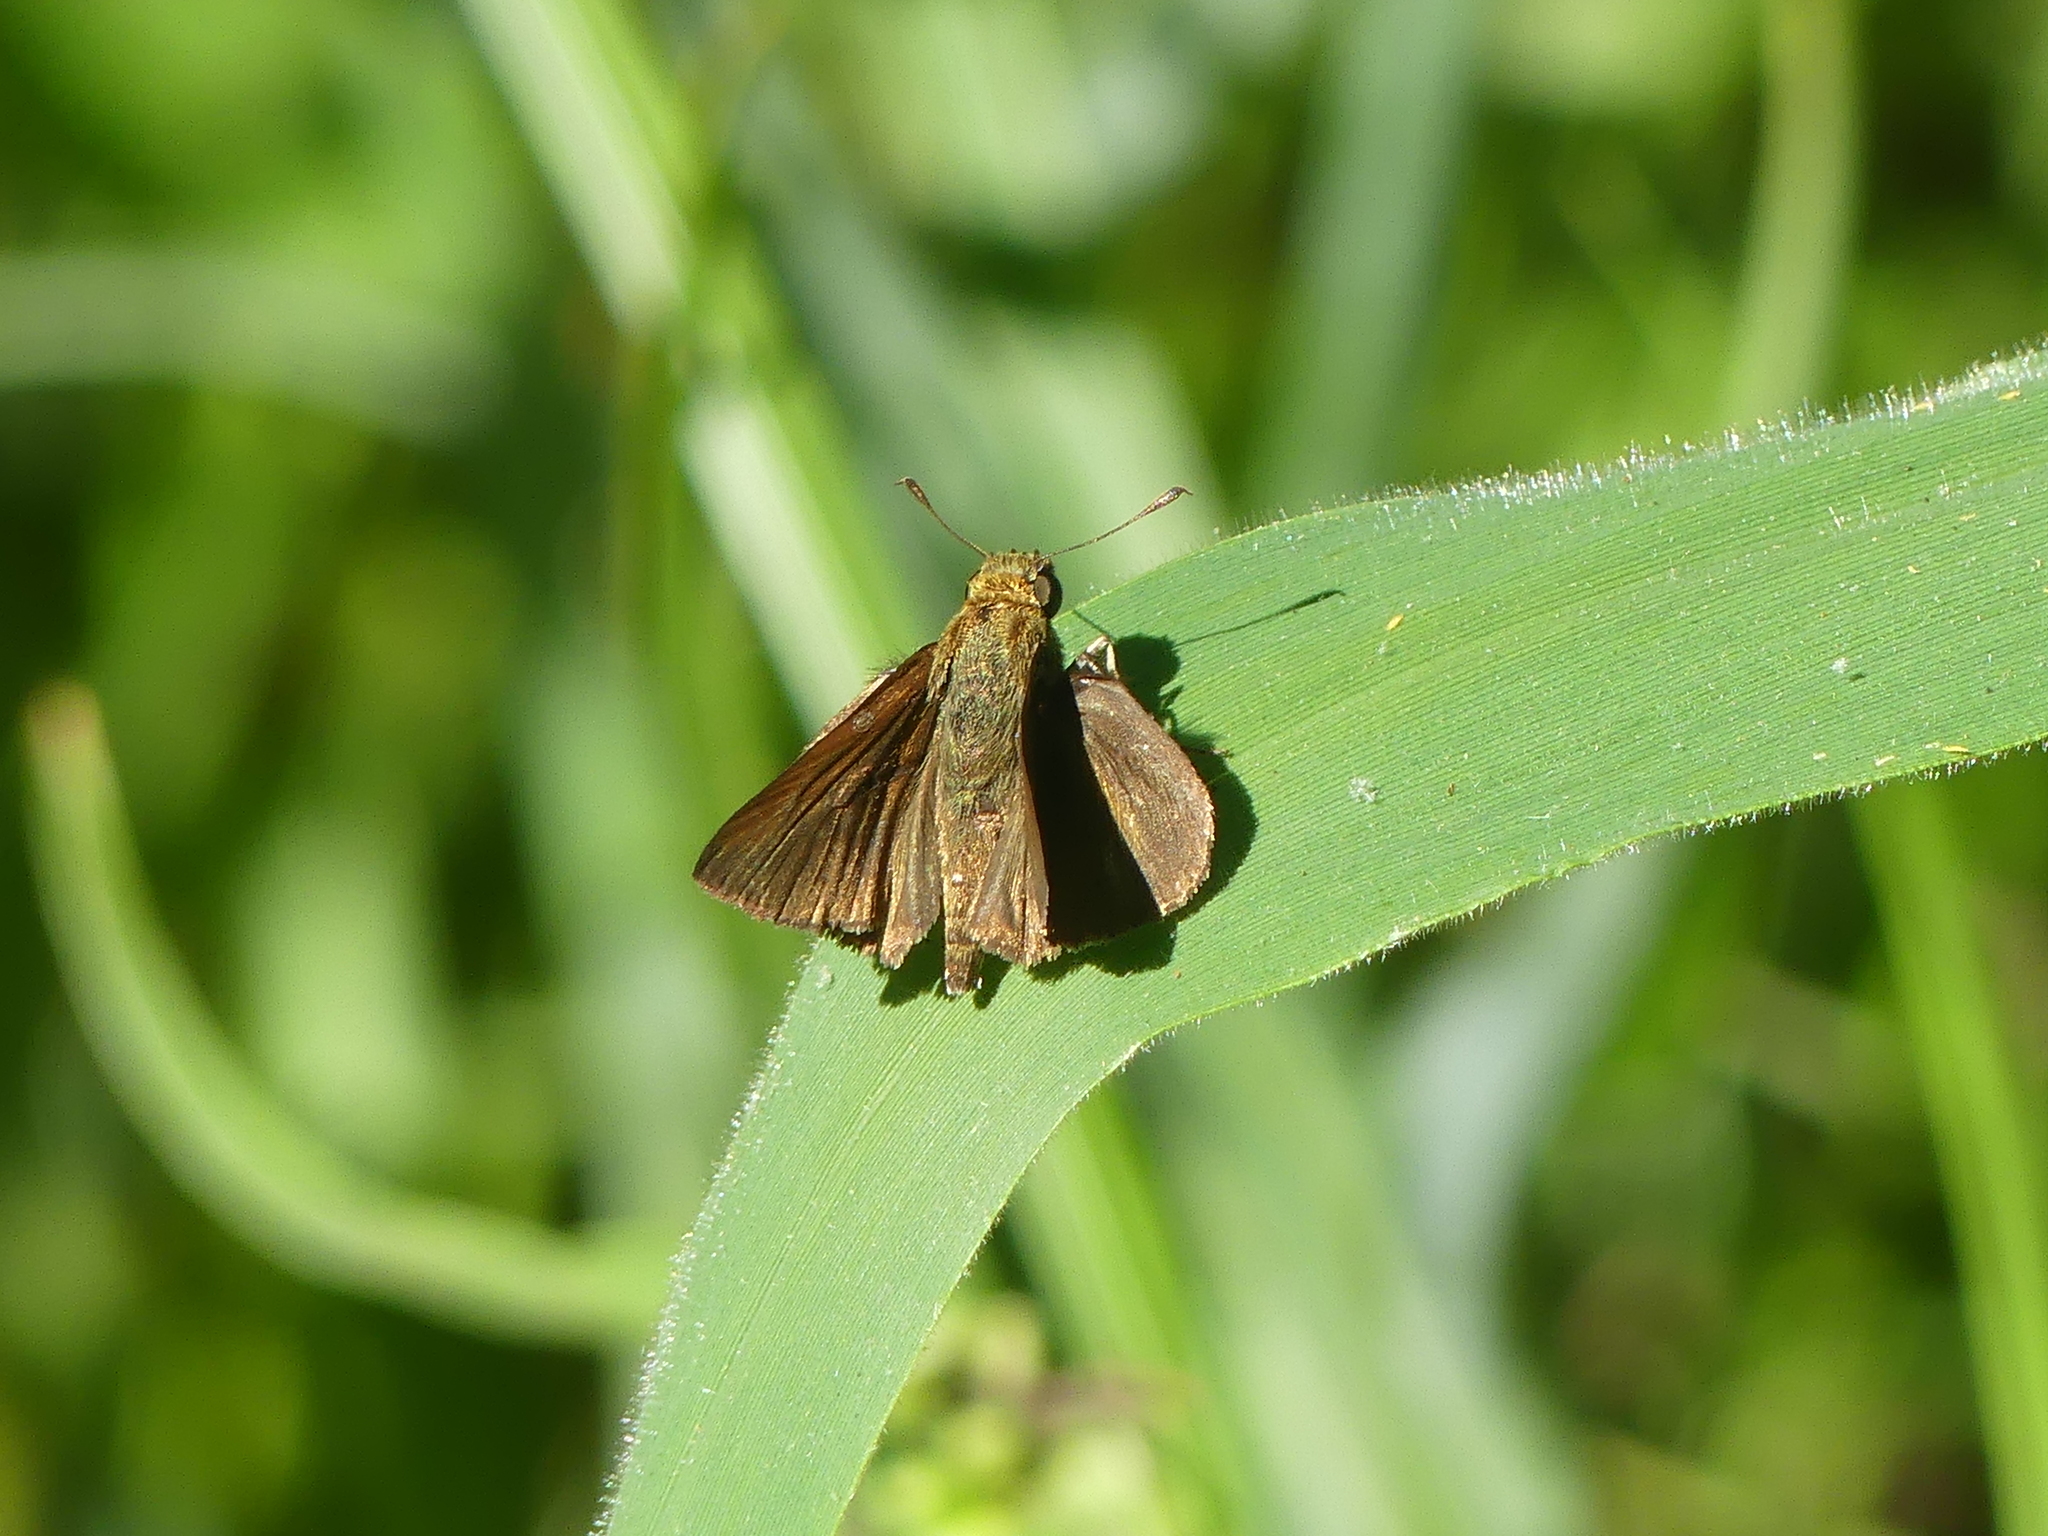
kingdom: Animalia
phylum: Arthropoda
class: Insecta
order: Lepidoptera
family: Hesperiidae
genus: Euphyes
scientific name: Euphyes vestris
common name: Dun skipper
